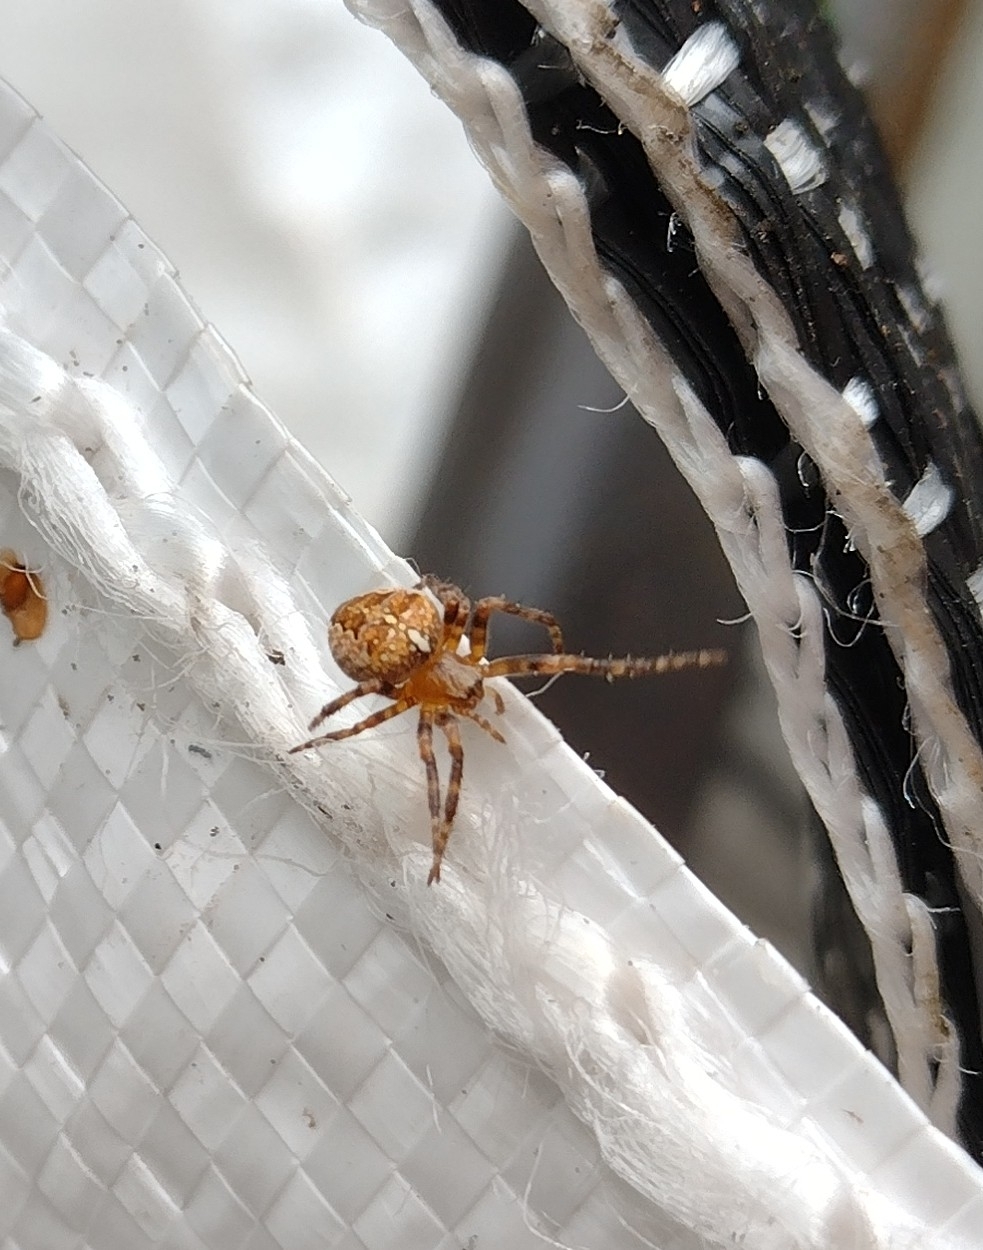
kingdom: Animalia
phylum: Arthropoda
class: Arachnida
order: Araneae
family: Araneidae
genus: Araneus
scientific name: Araneus diadematus
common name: Cross orbweaver
